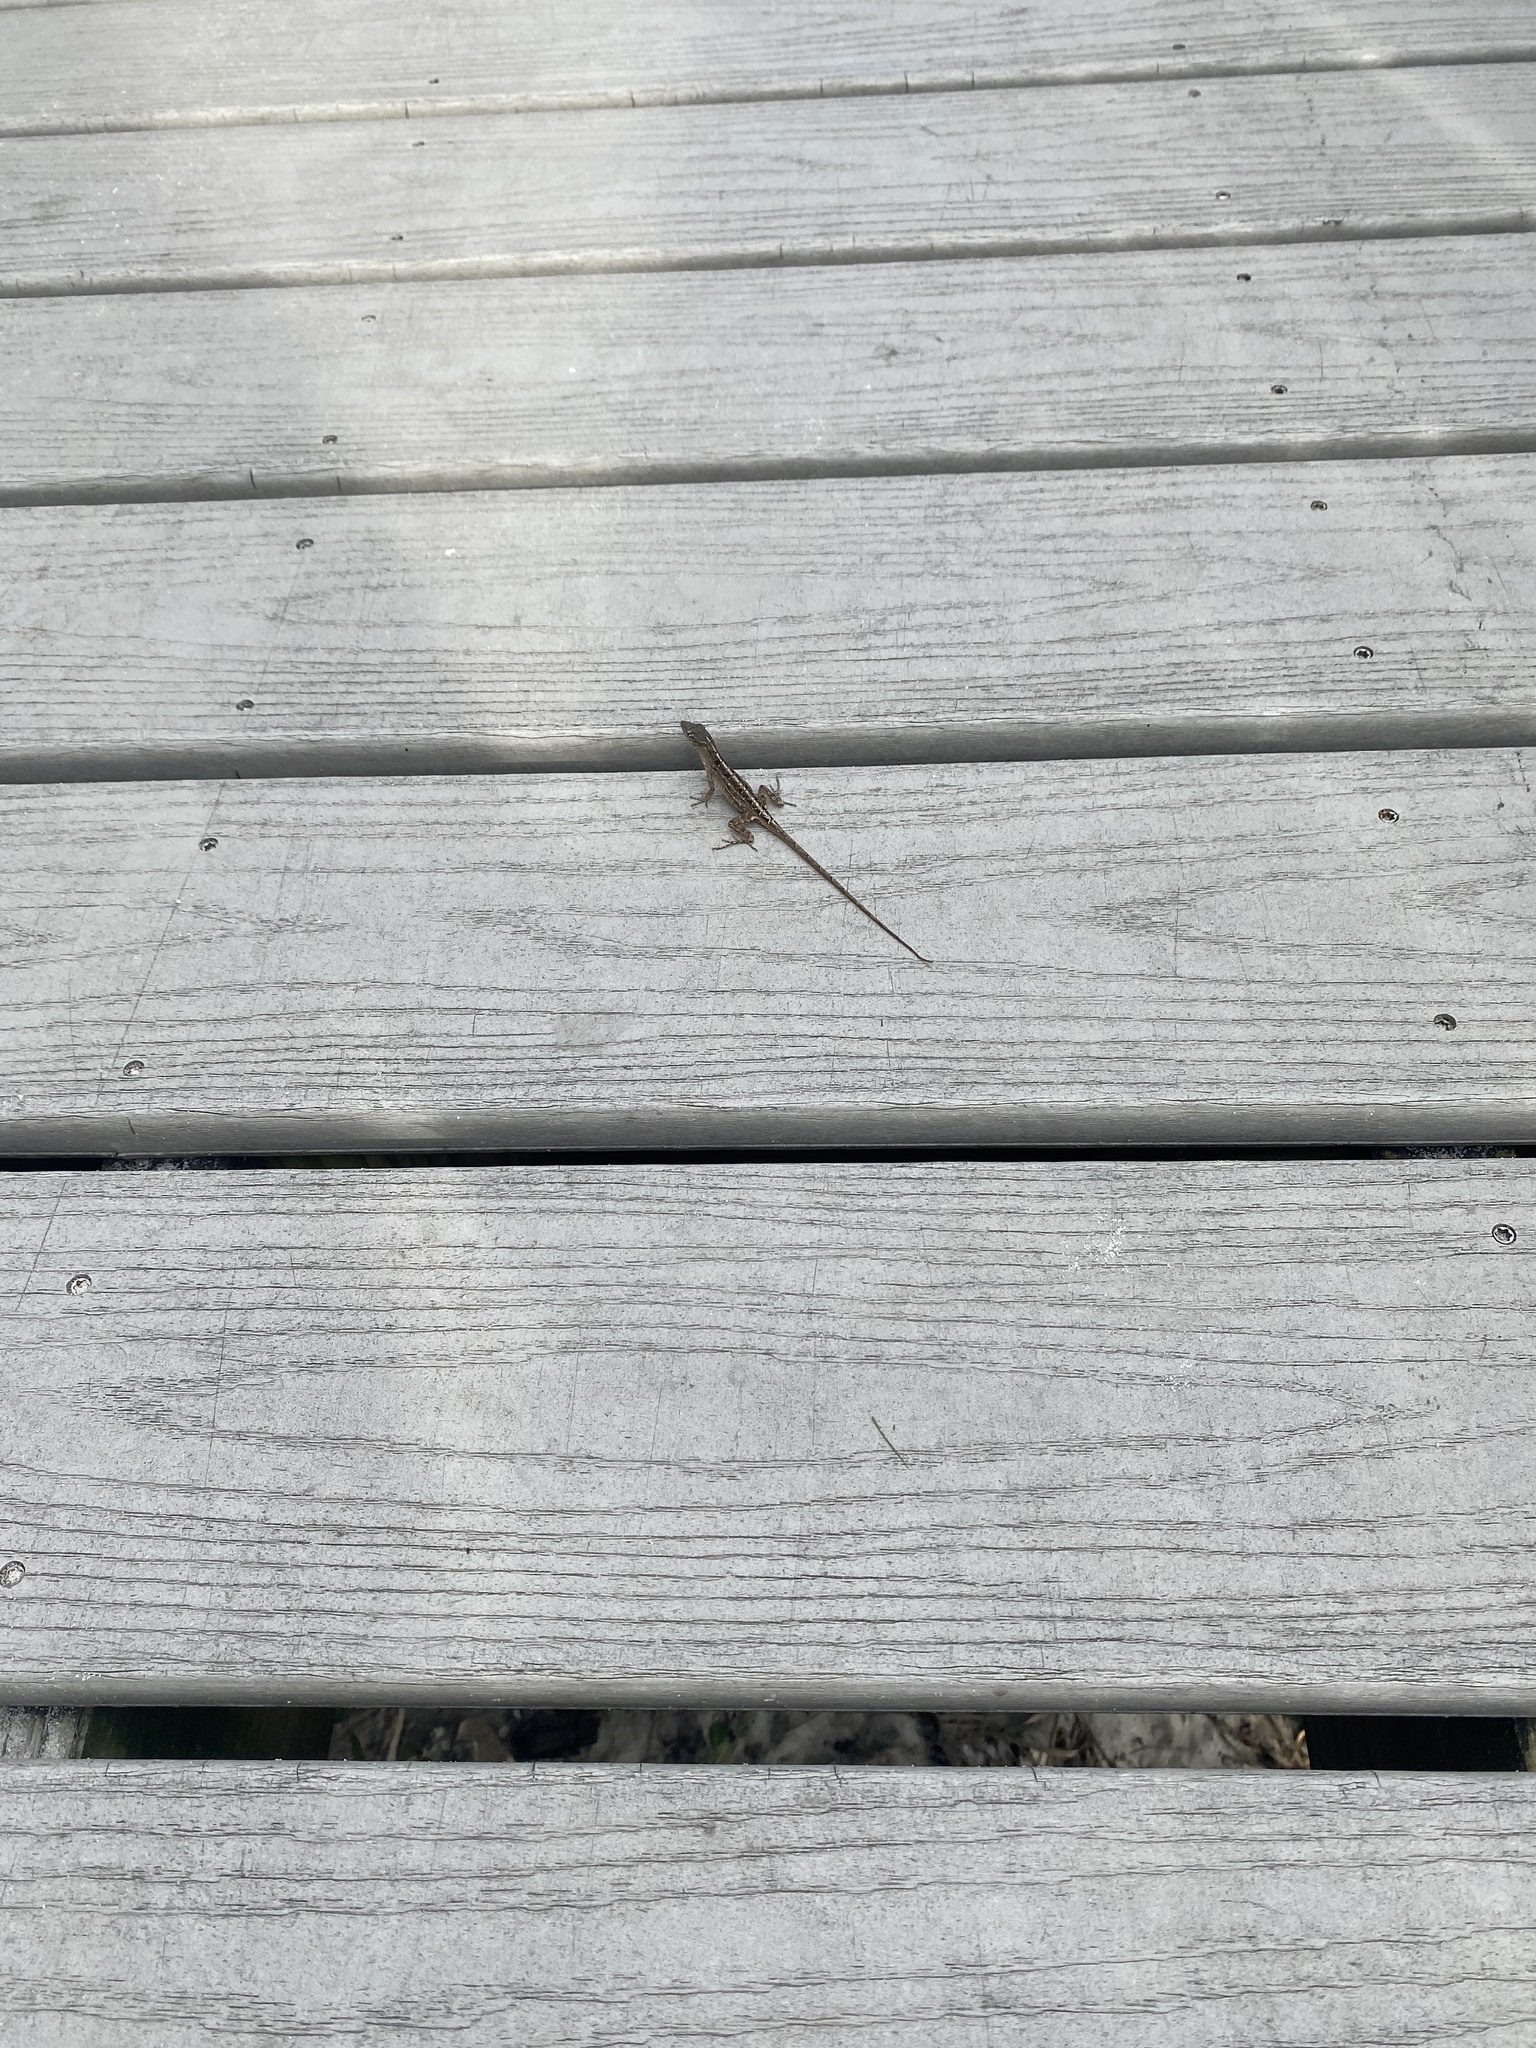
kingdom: Animalia
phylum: Chordata
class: Squamata
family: Dactyloidae
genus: Anolis
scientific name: Anolis sagrei
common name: Brown anole
